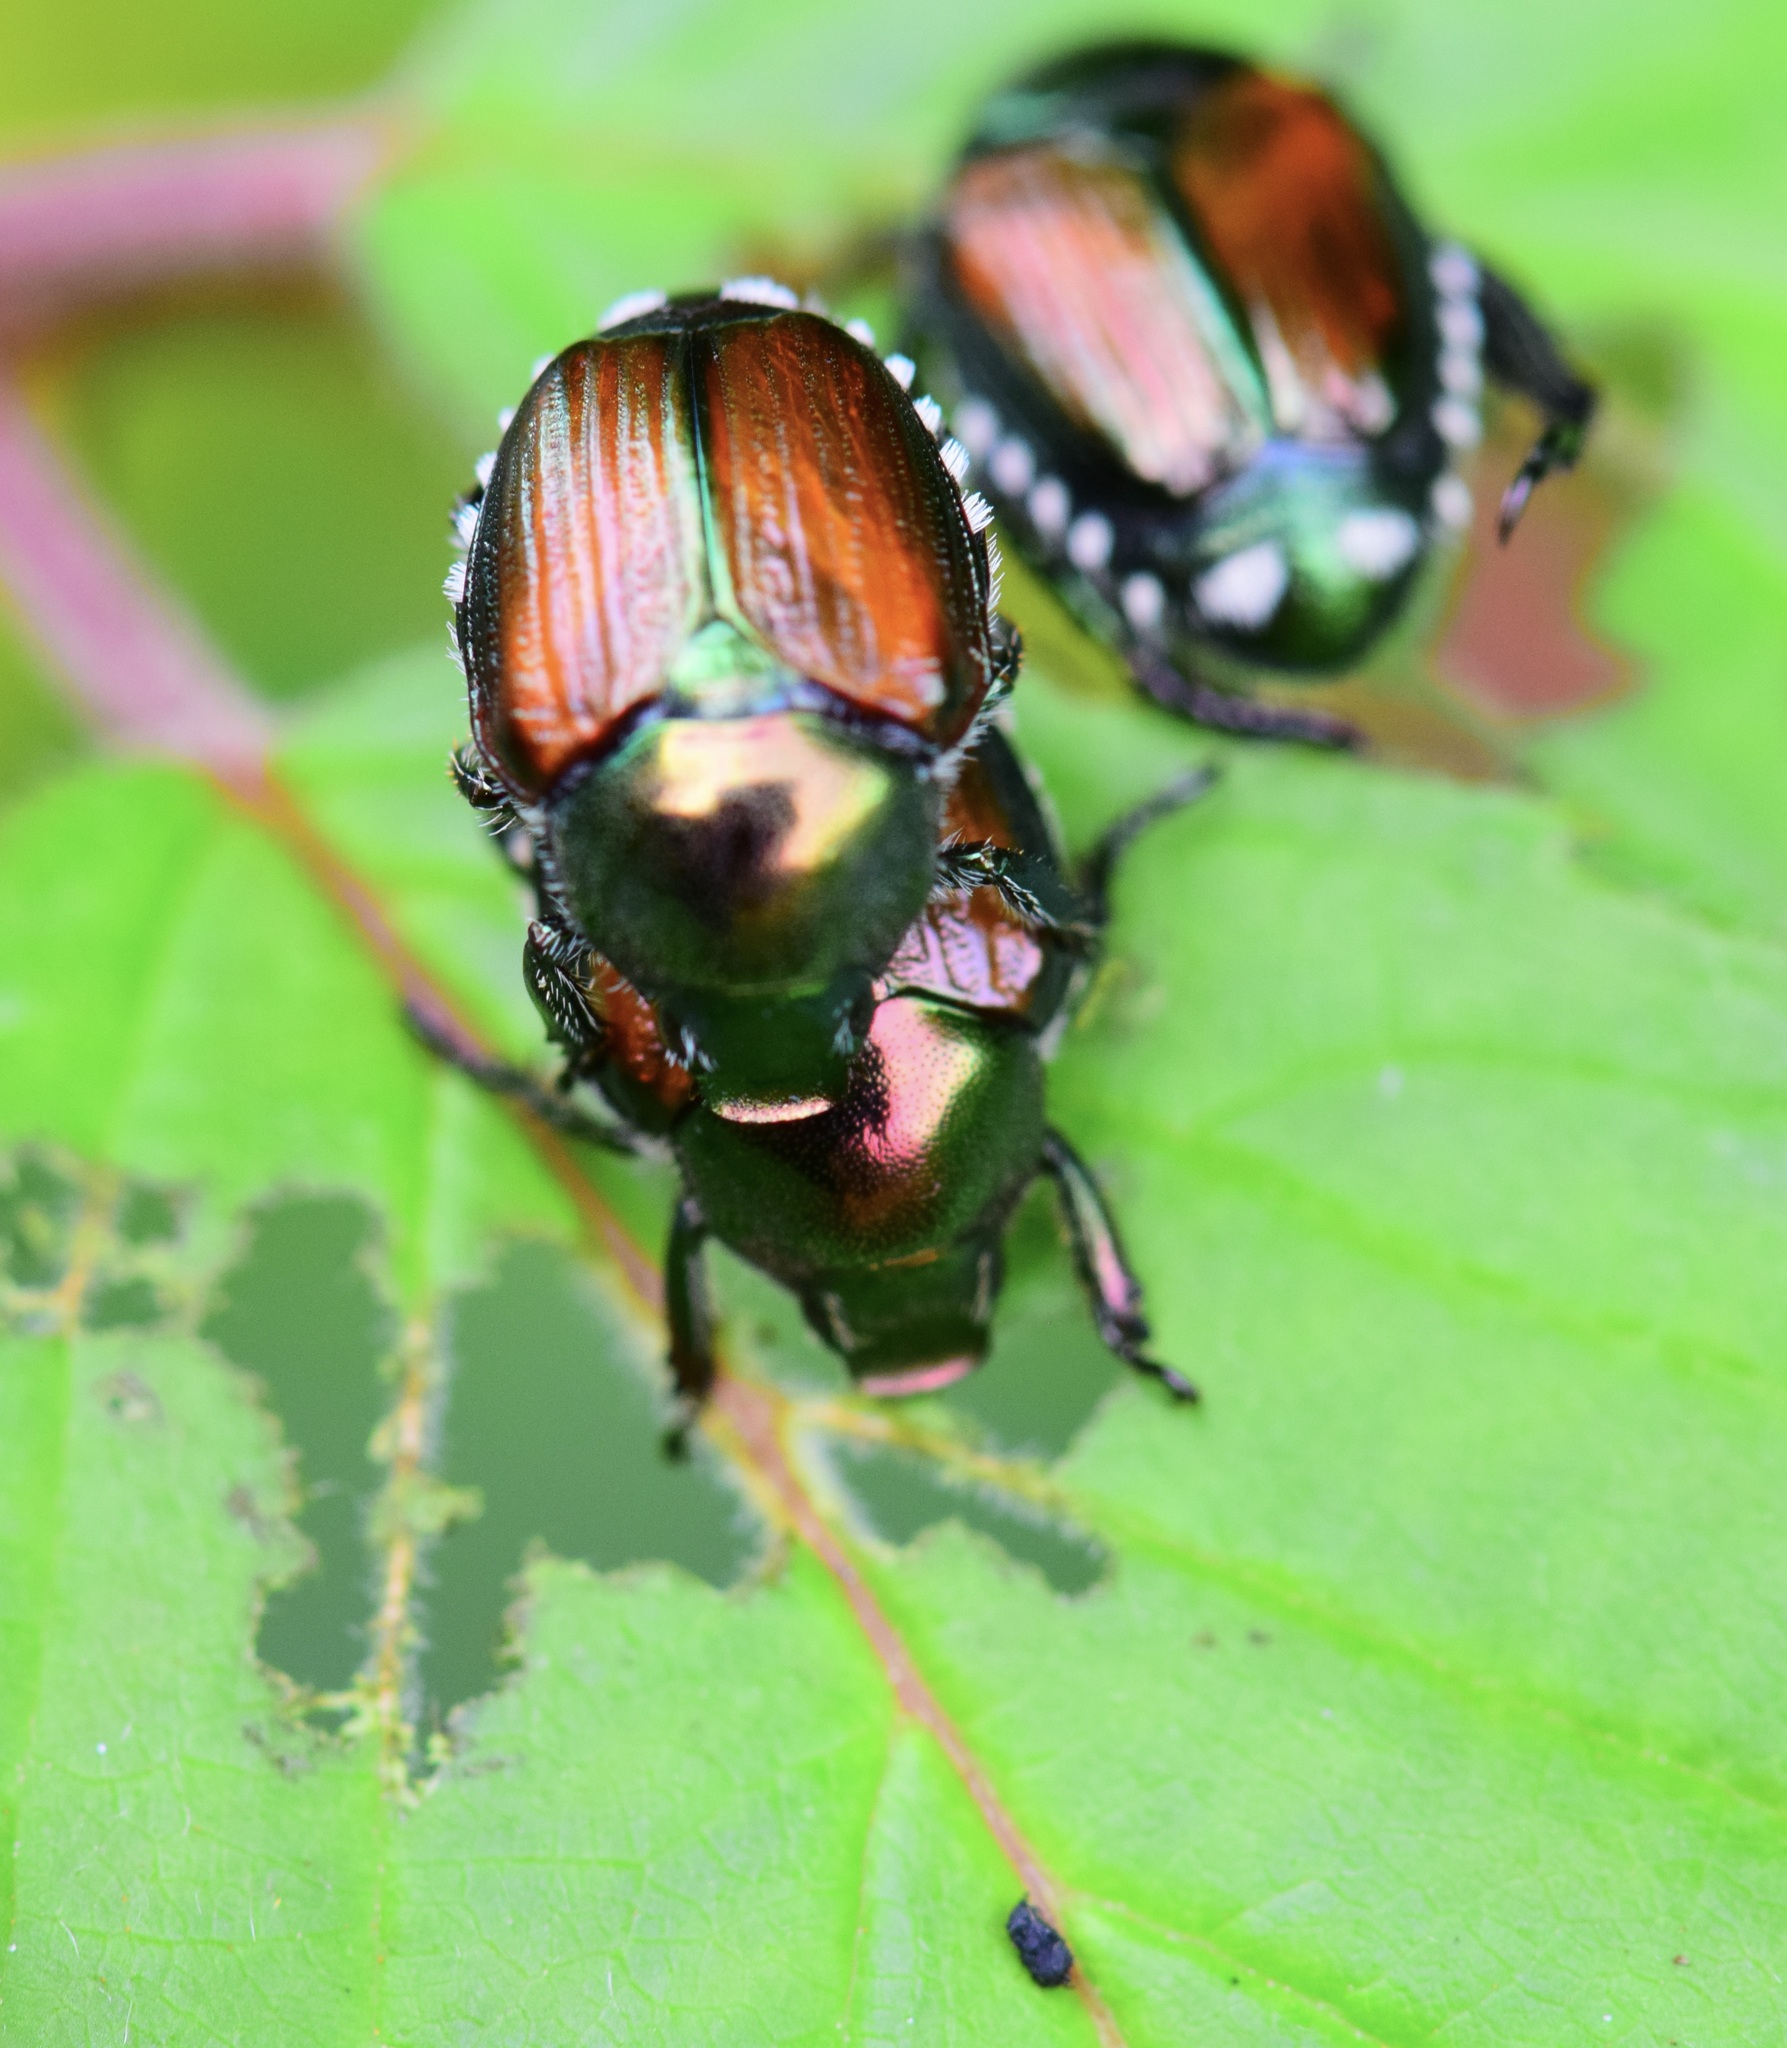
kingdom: Animalia
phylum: Arthropoda
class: Insecta
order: Coleoptera
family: Scarabaeidae
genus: Popillia
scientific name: Popillia japonica
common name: Japanese beetle
